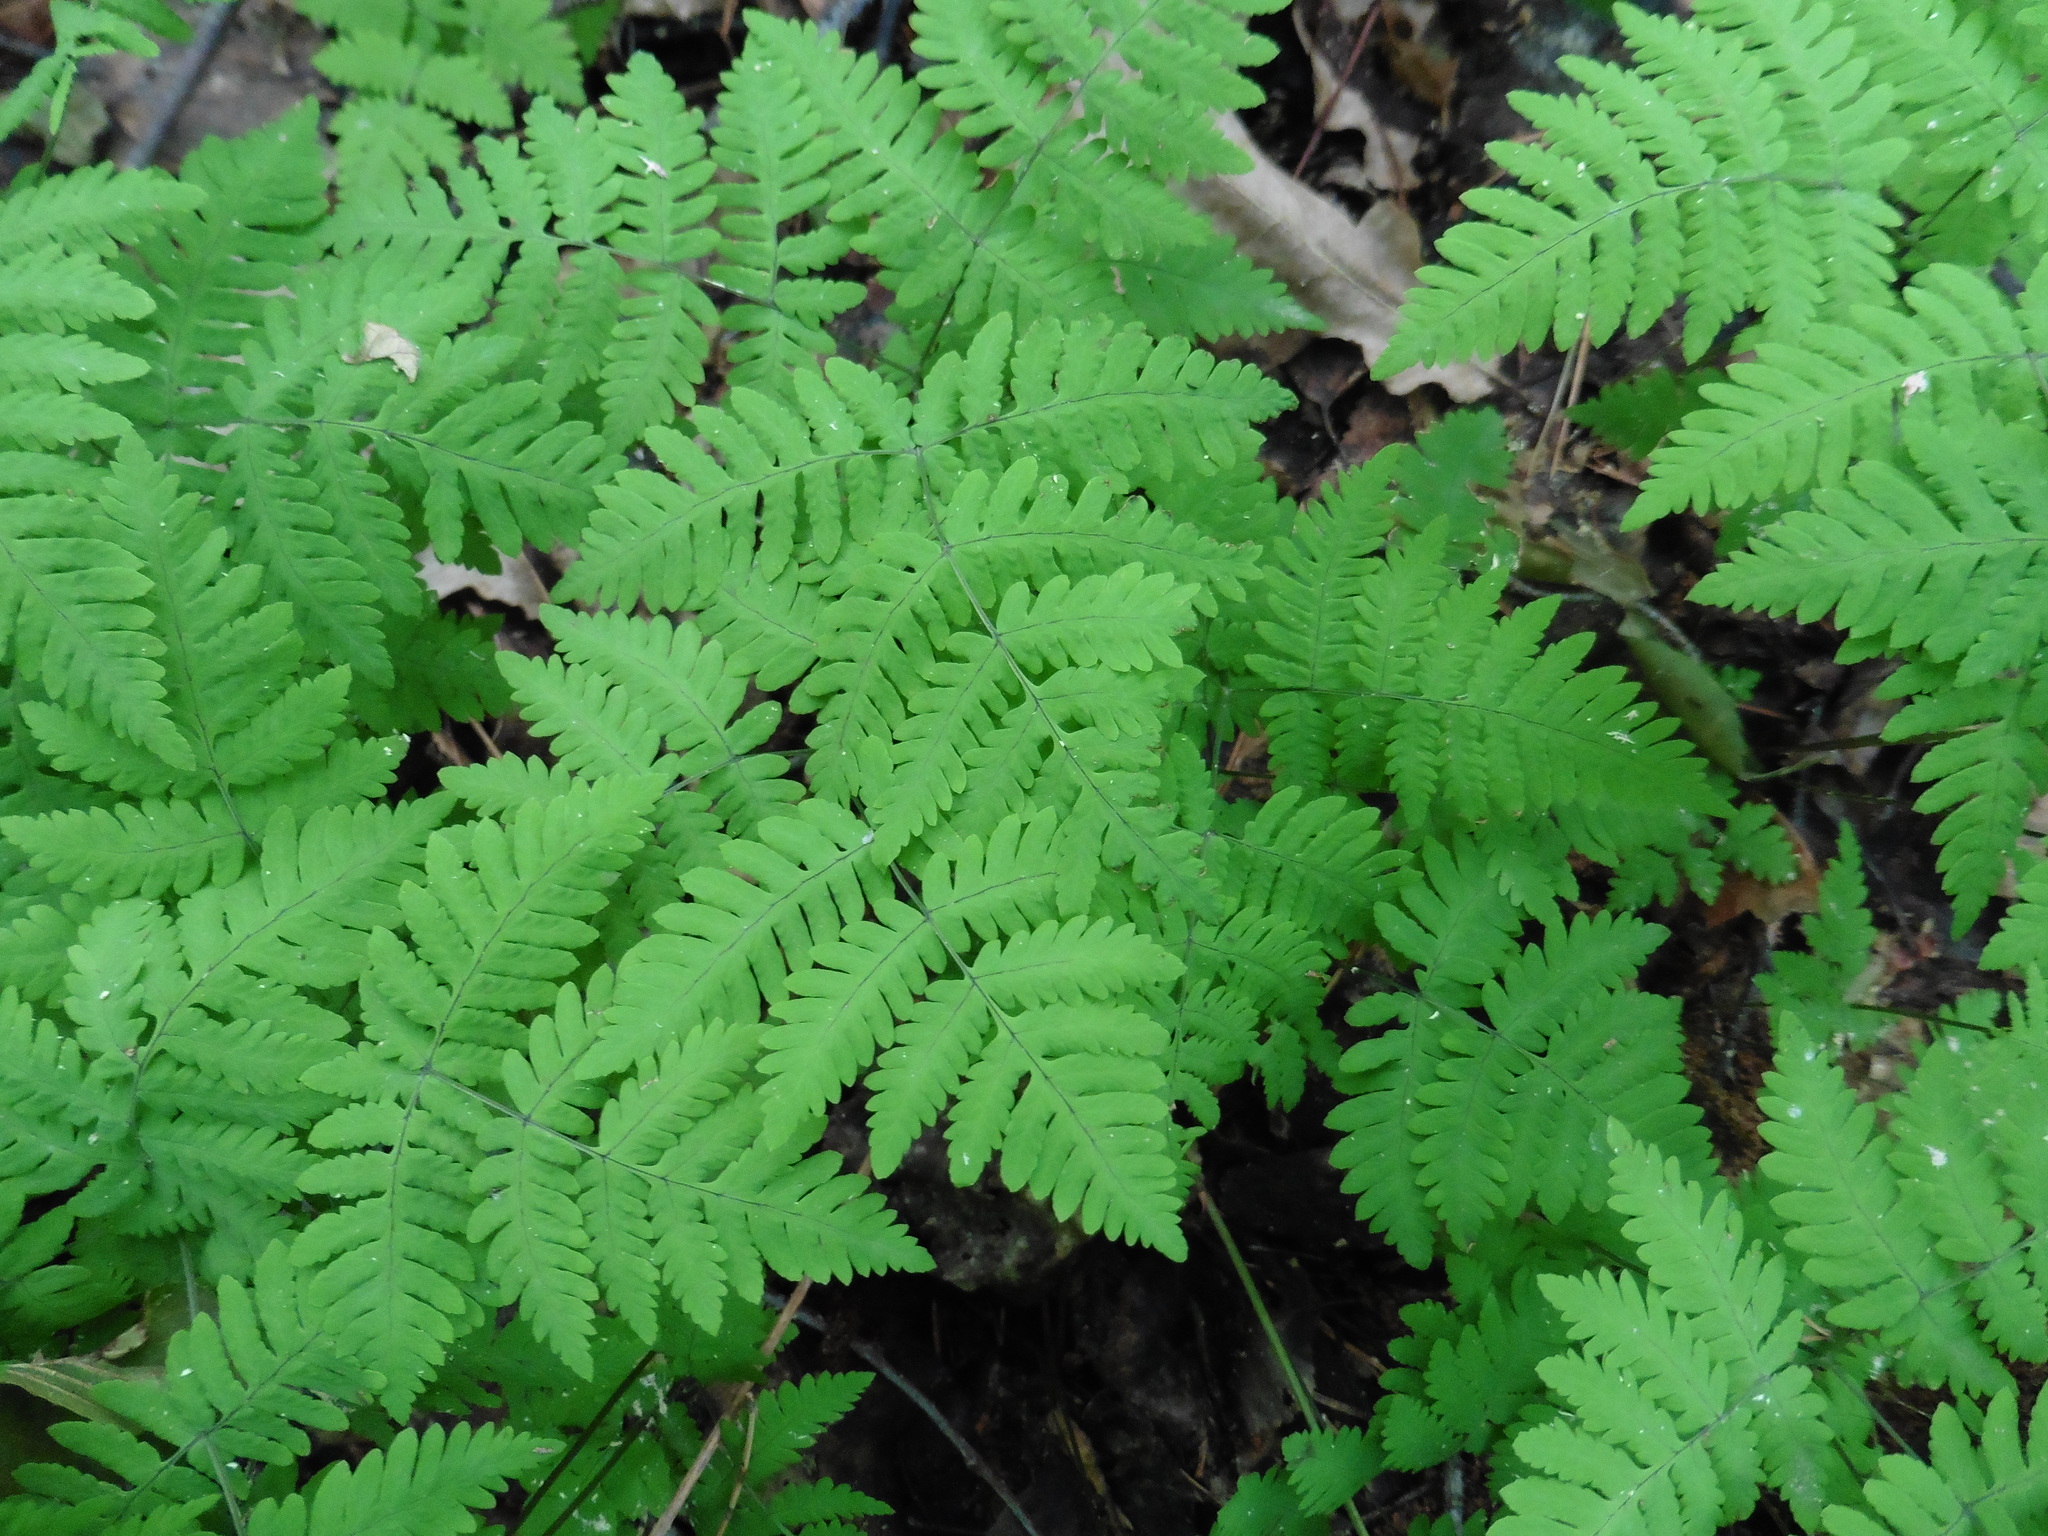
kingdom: Plantae
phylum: Tracheophyta
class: Polypodiopsida
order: Polypodiales
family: Cystopteridaceae
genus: Gymnocarpium
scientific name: Gymnocarpium dryopteris
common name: Oak fern
